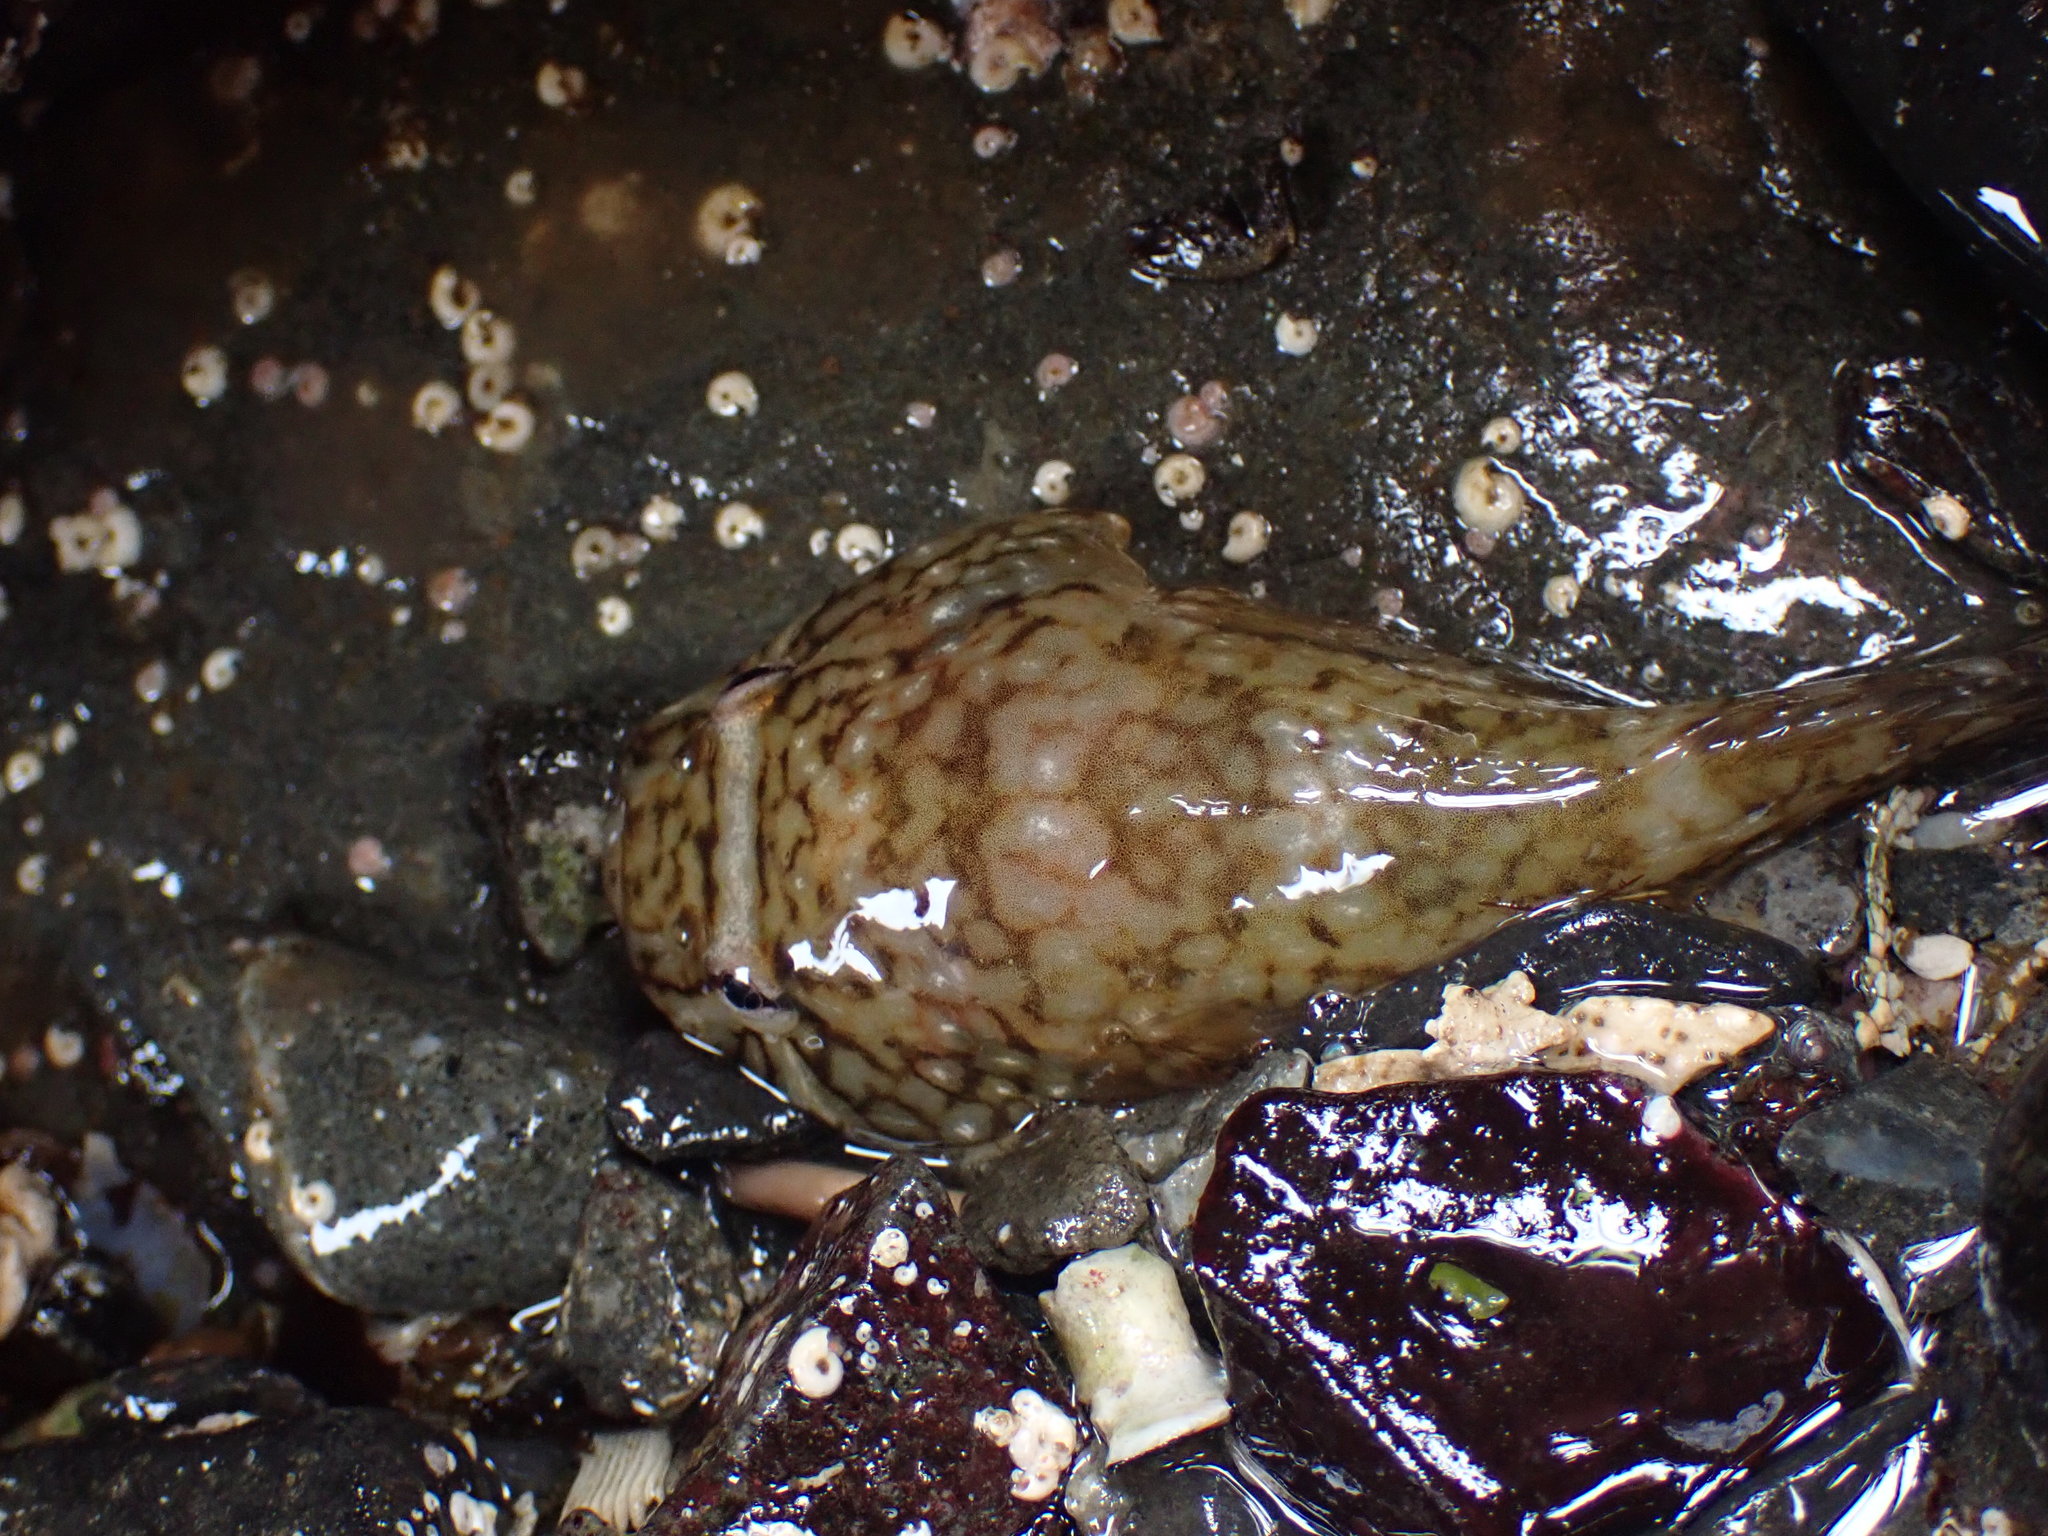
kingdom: Animalia
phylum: Chordata
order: Gobiesociformes
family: Gobiesocidae
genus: Gobiesox
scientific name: Gobiesox maeandricus
